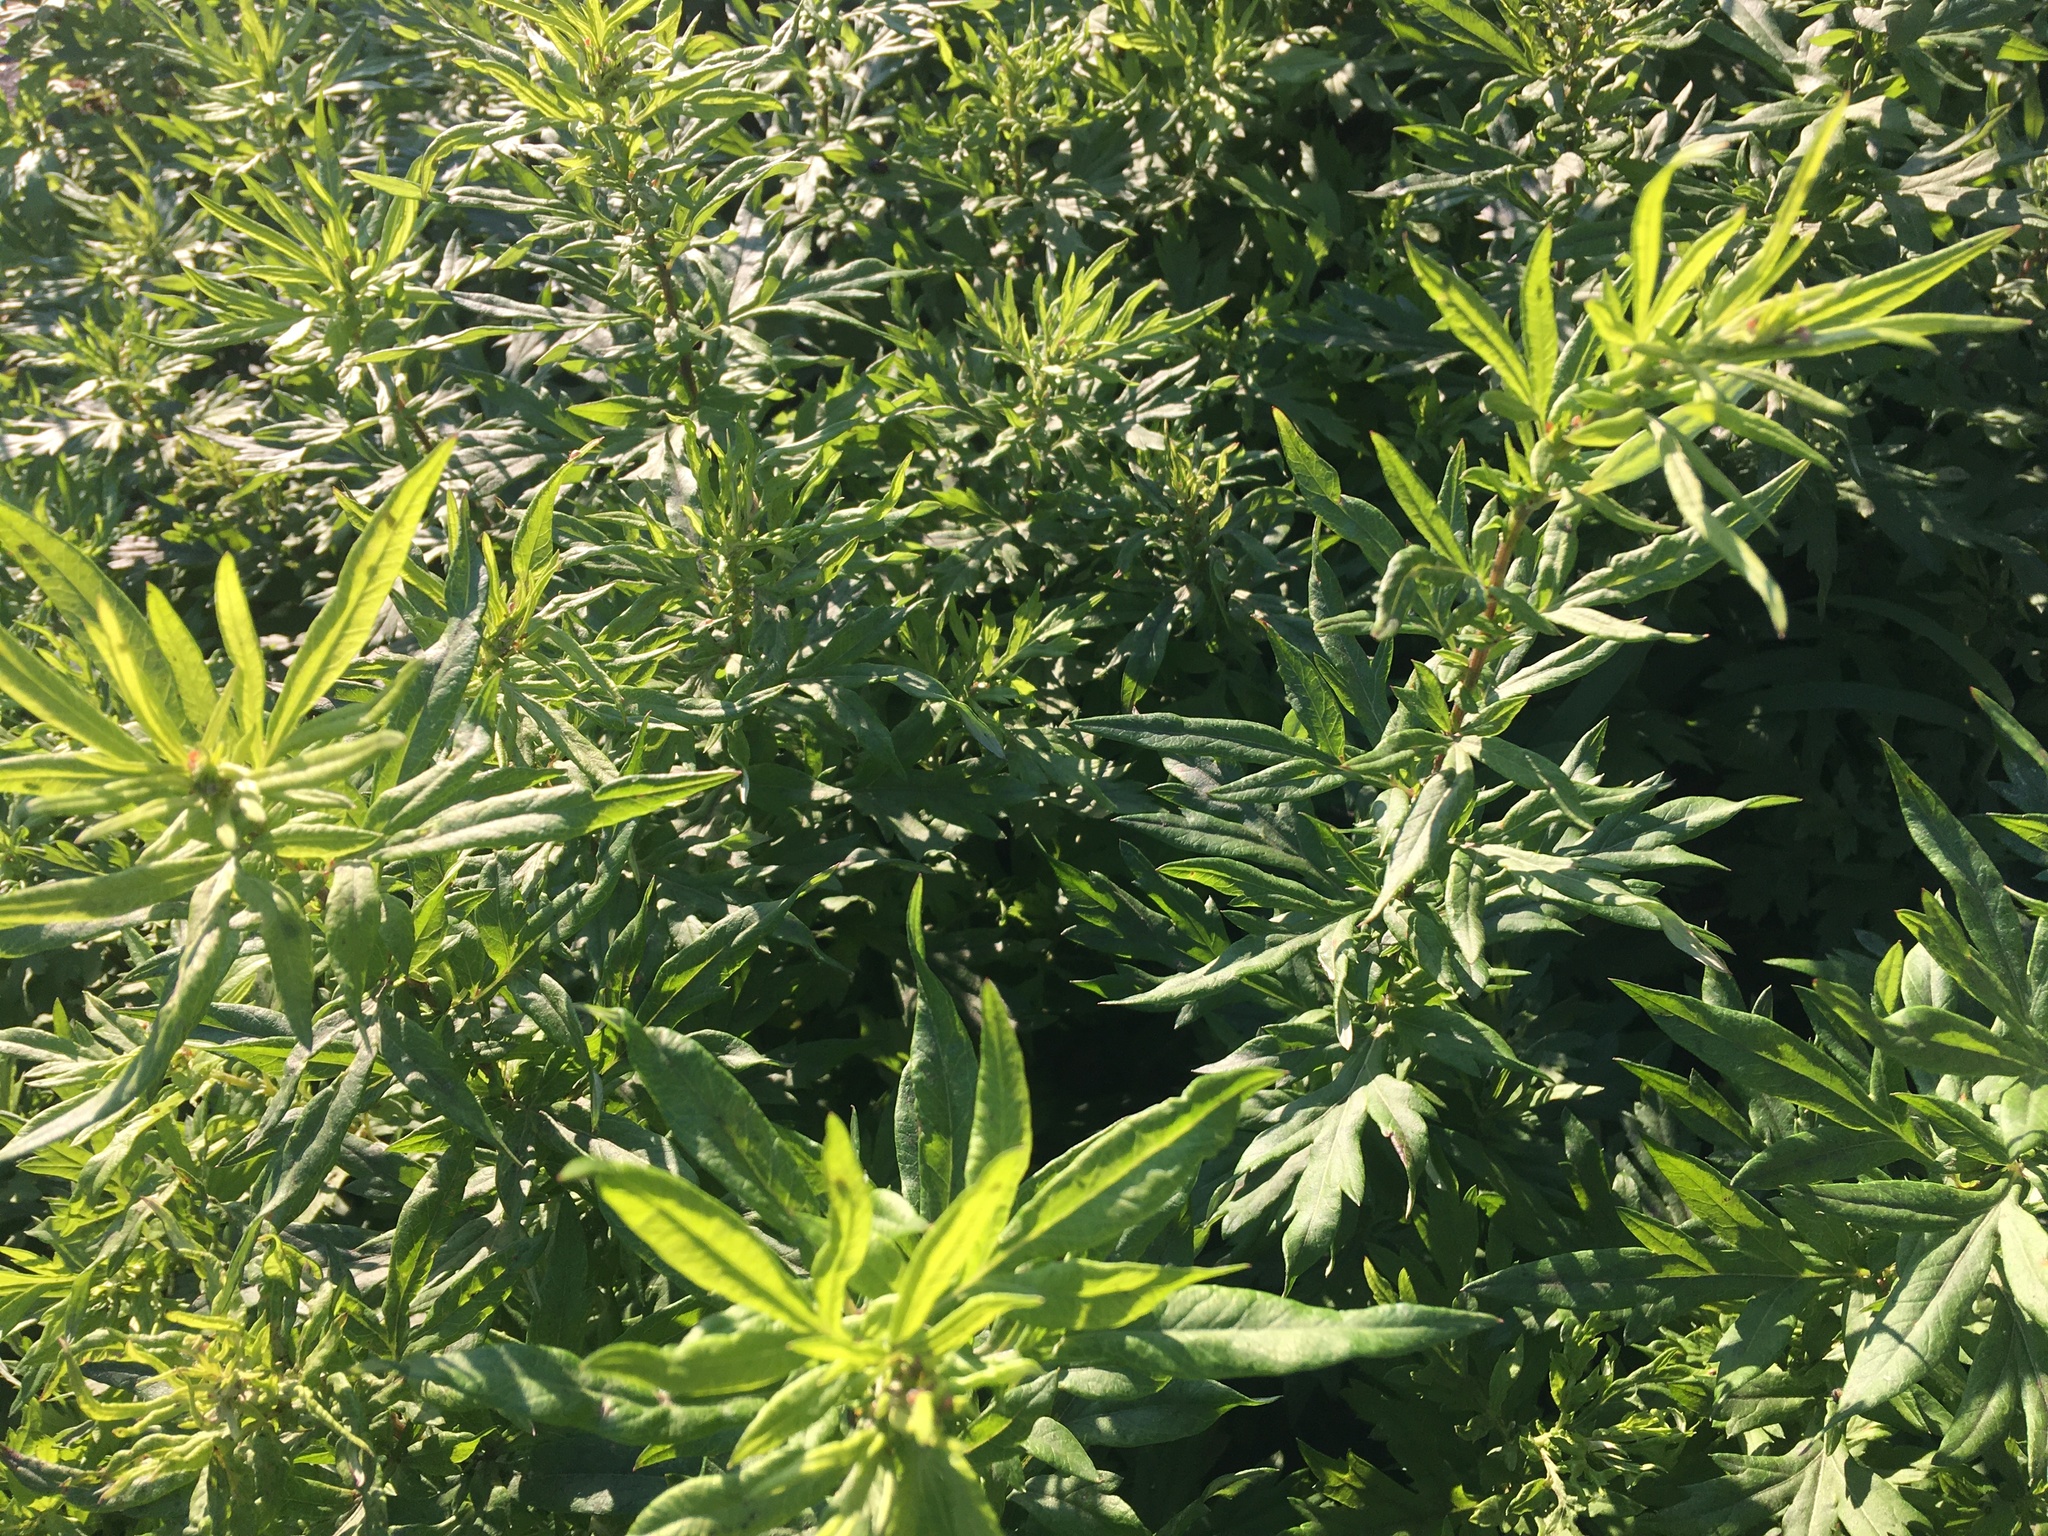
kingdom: Plantae
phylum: Tracheophyta
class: Magnoliopsida
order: Asterales
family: Asteraceae
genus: Artemisia
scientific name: Artemisia vulgaris
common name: Mugwort
